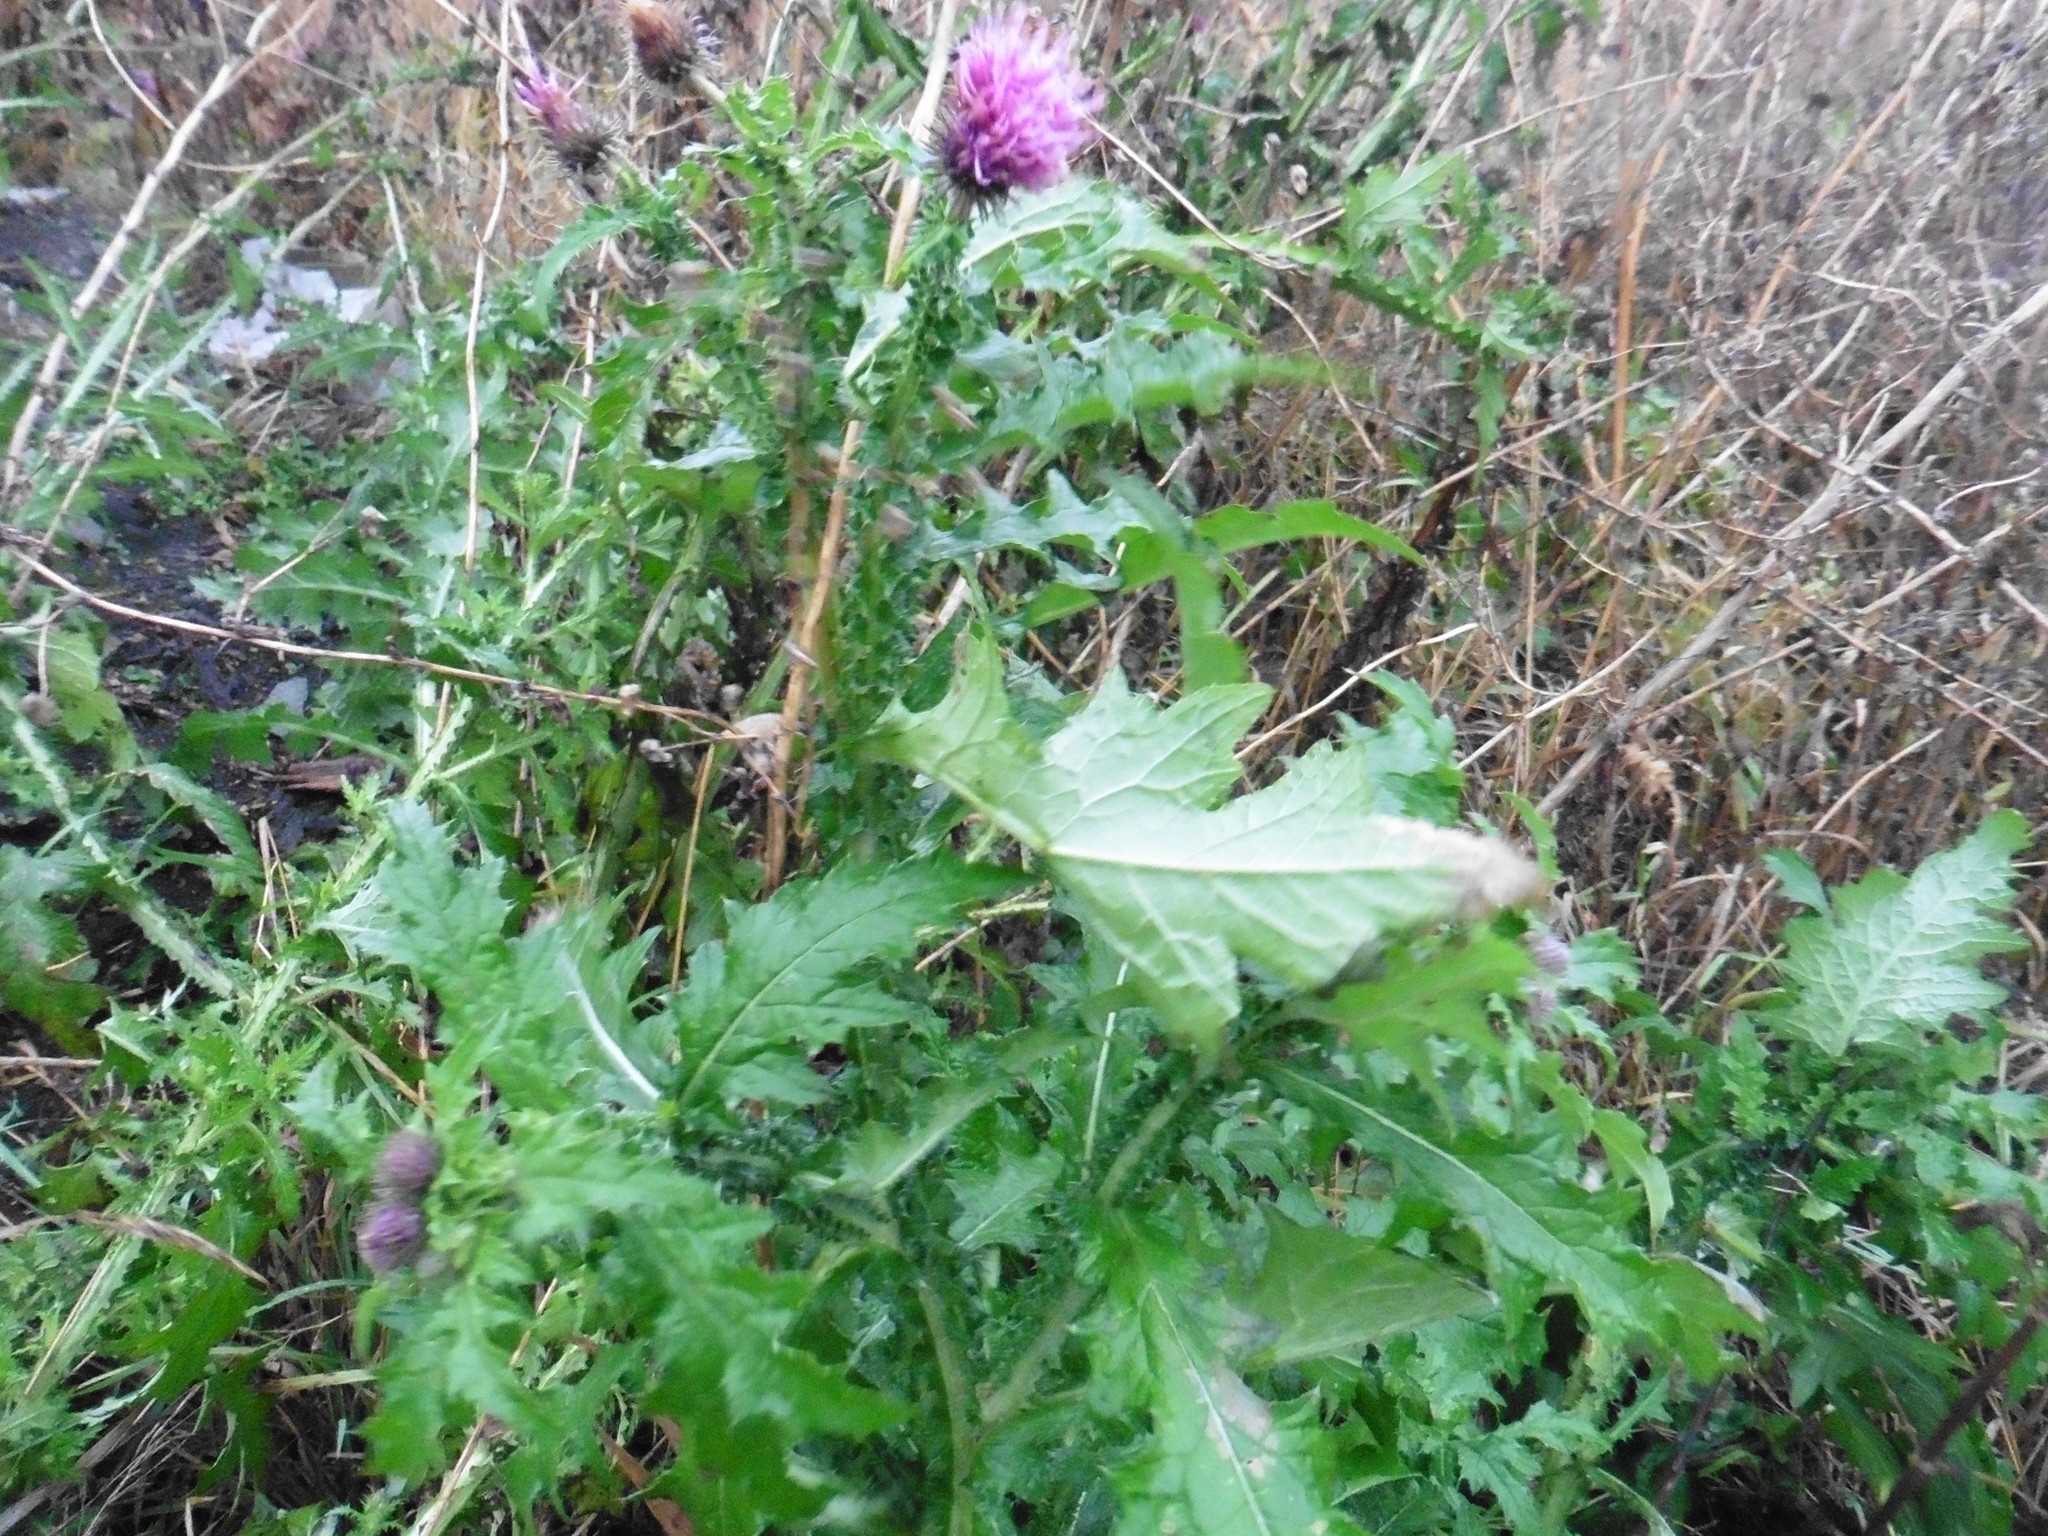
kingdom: Plantae
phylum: Tracheophyta
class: Magnoliopsida
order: Asterales
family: Asteraceae
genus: Carduus
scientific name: Carduus crispus
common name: Welted thistle
